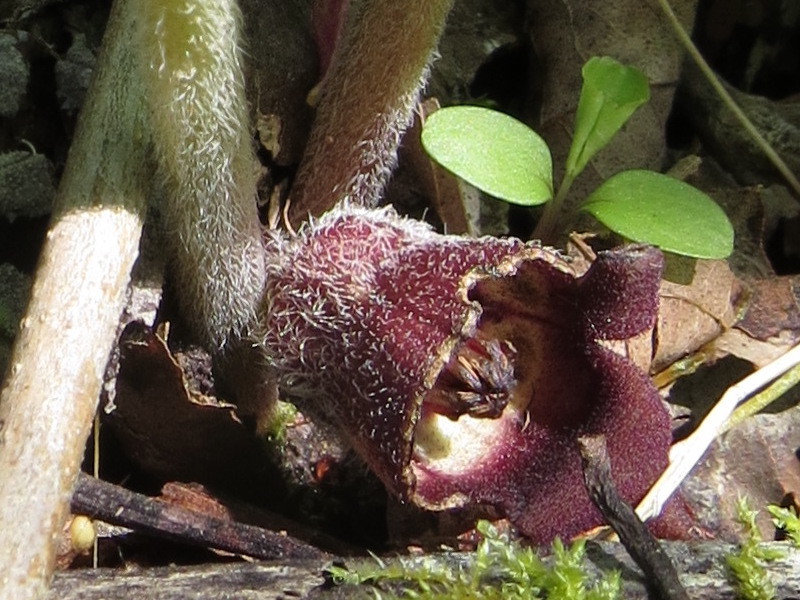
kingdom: Plantae
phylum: Tracheophyta
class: Magnoliopsida
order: Piperales
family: Aristolochiaceae
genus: Asarum
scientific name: Asarum canadense
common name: Wild ginger
